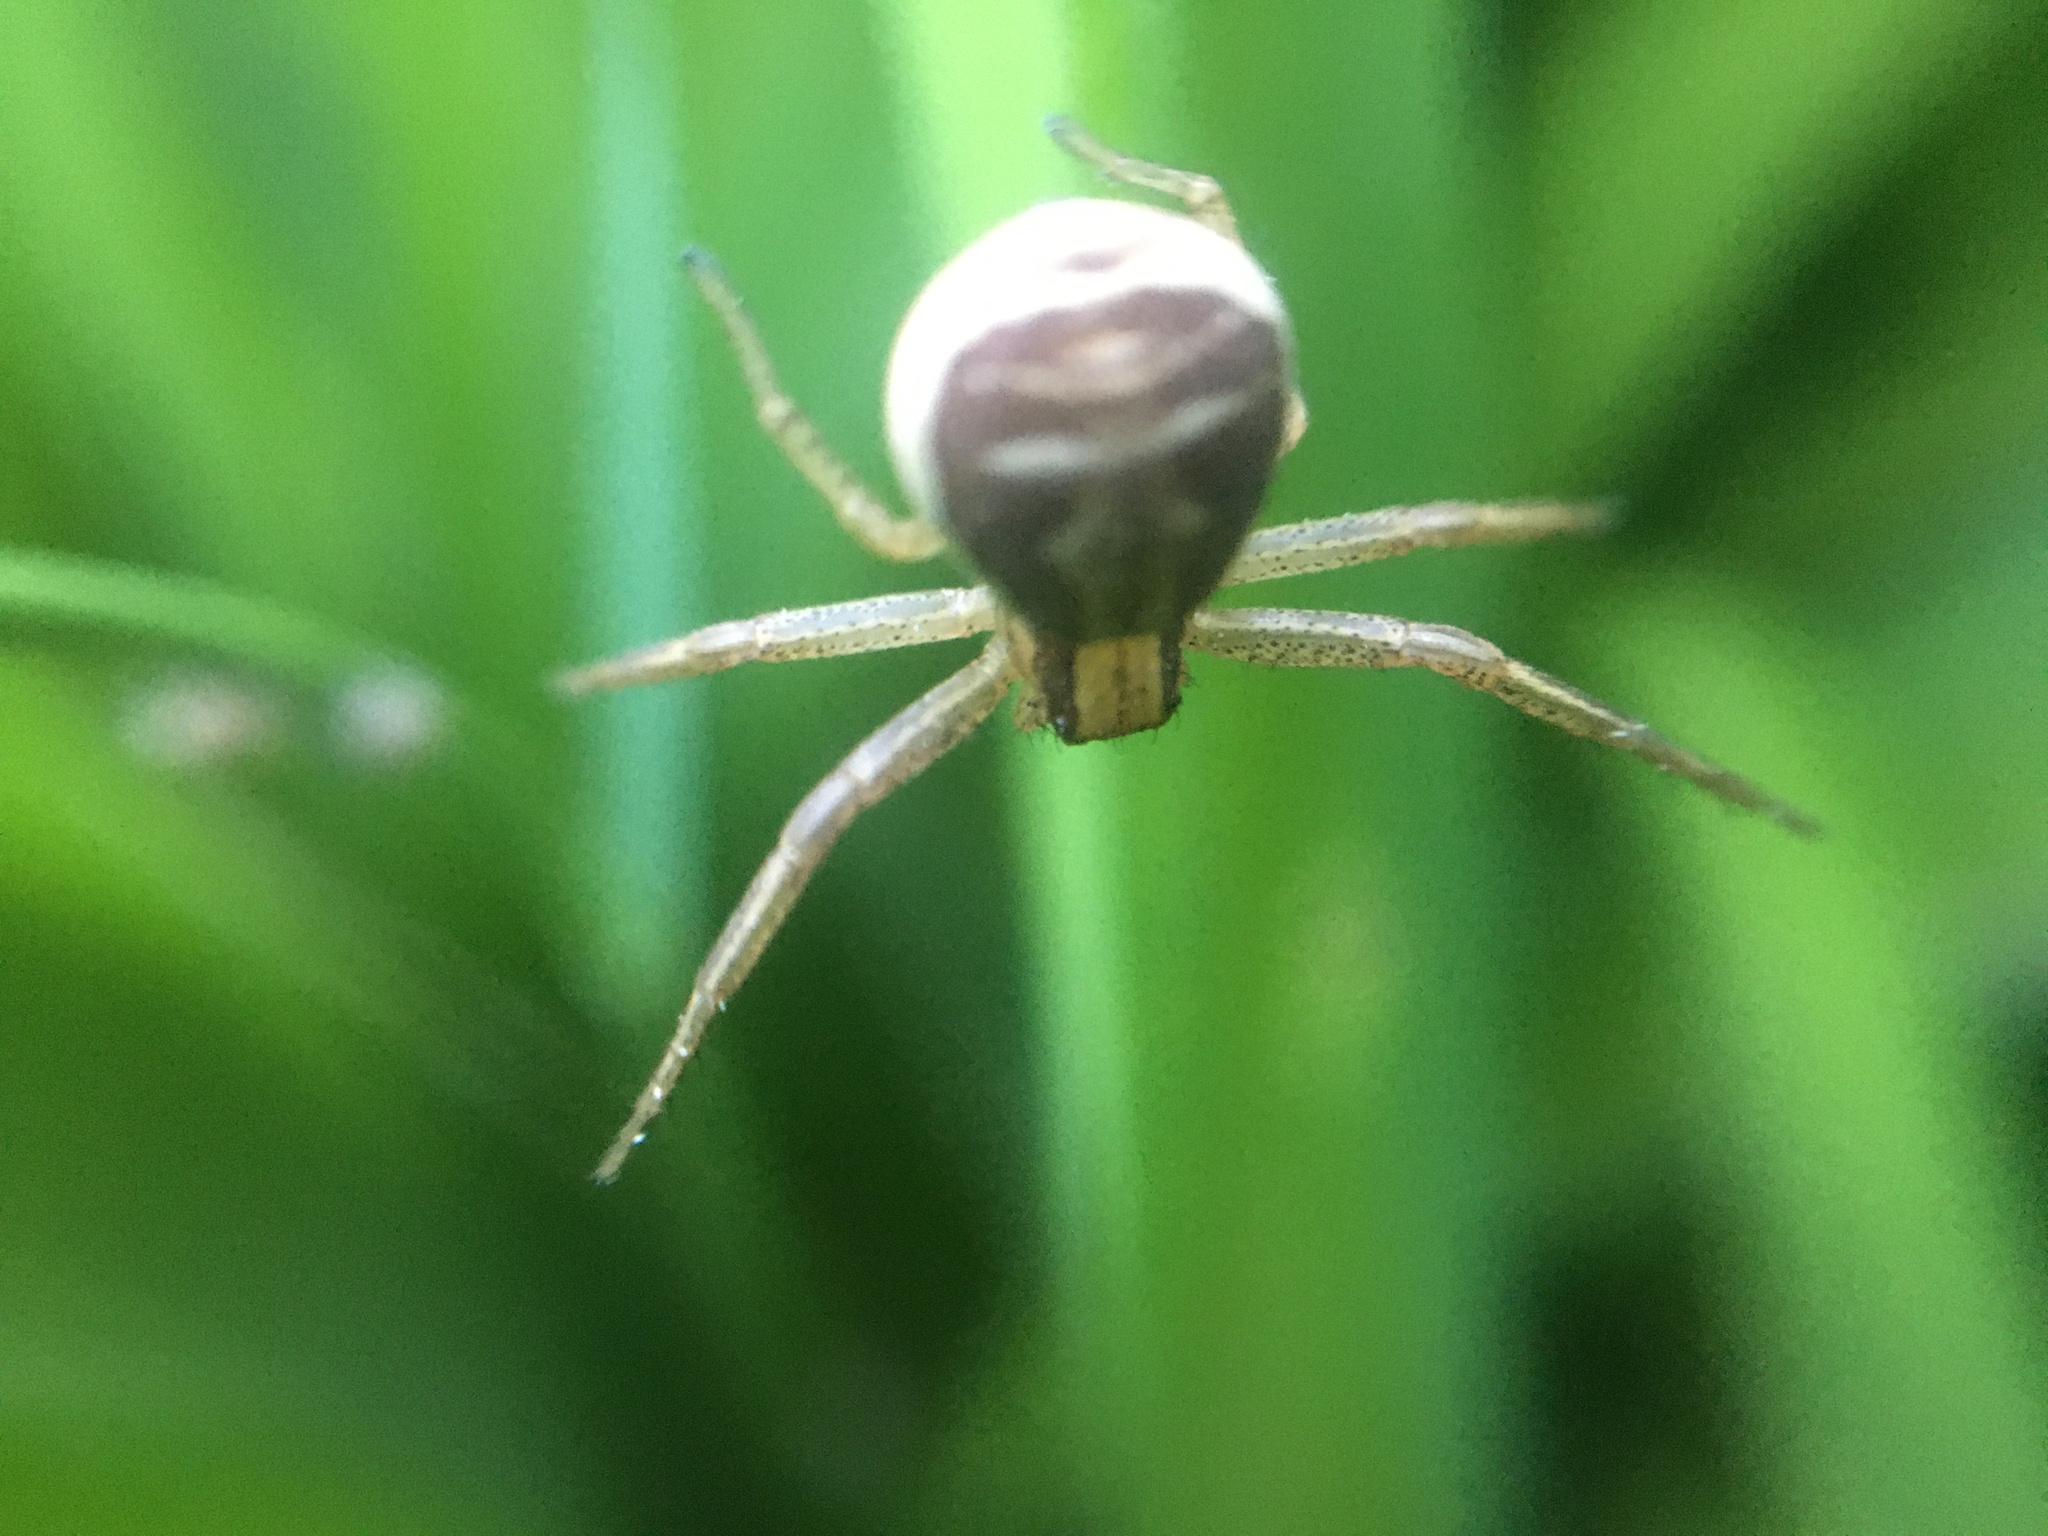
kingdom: Animalia
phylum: Arthropoda
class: Arachnida
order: Araneae
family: Thomisidae
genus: Xysticus
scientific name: Xysticus ulmi
